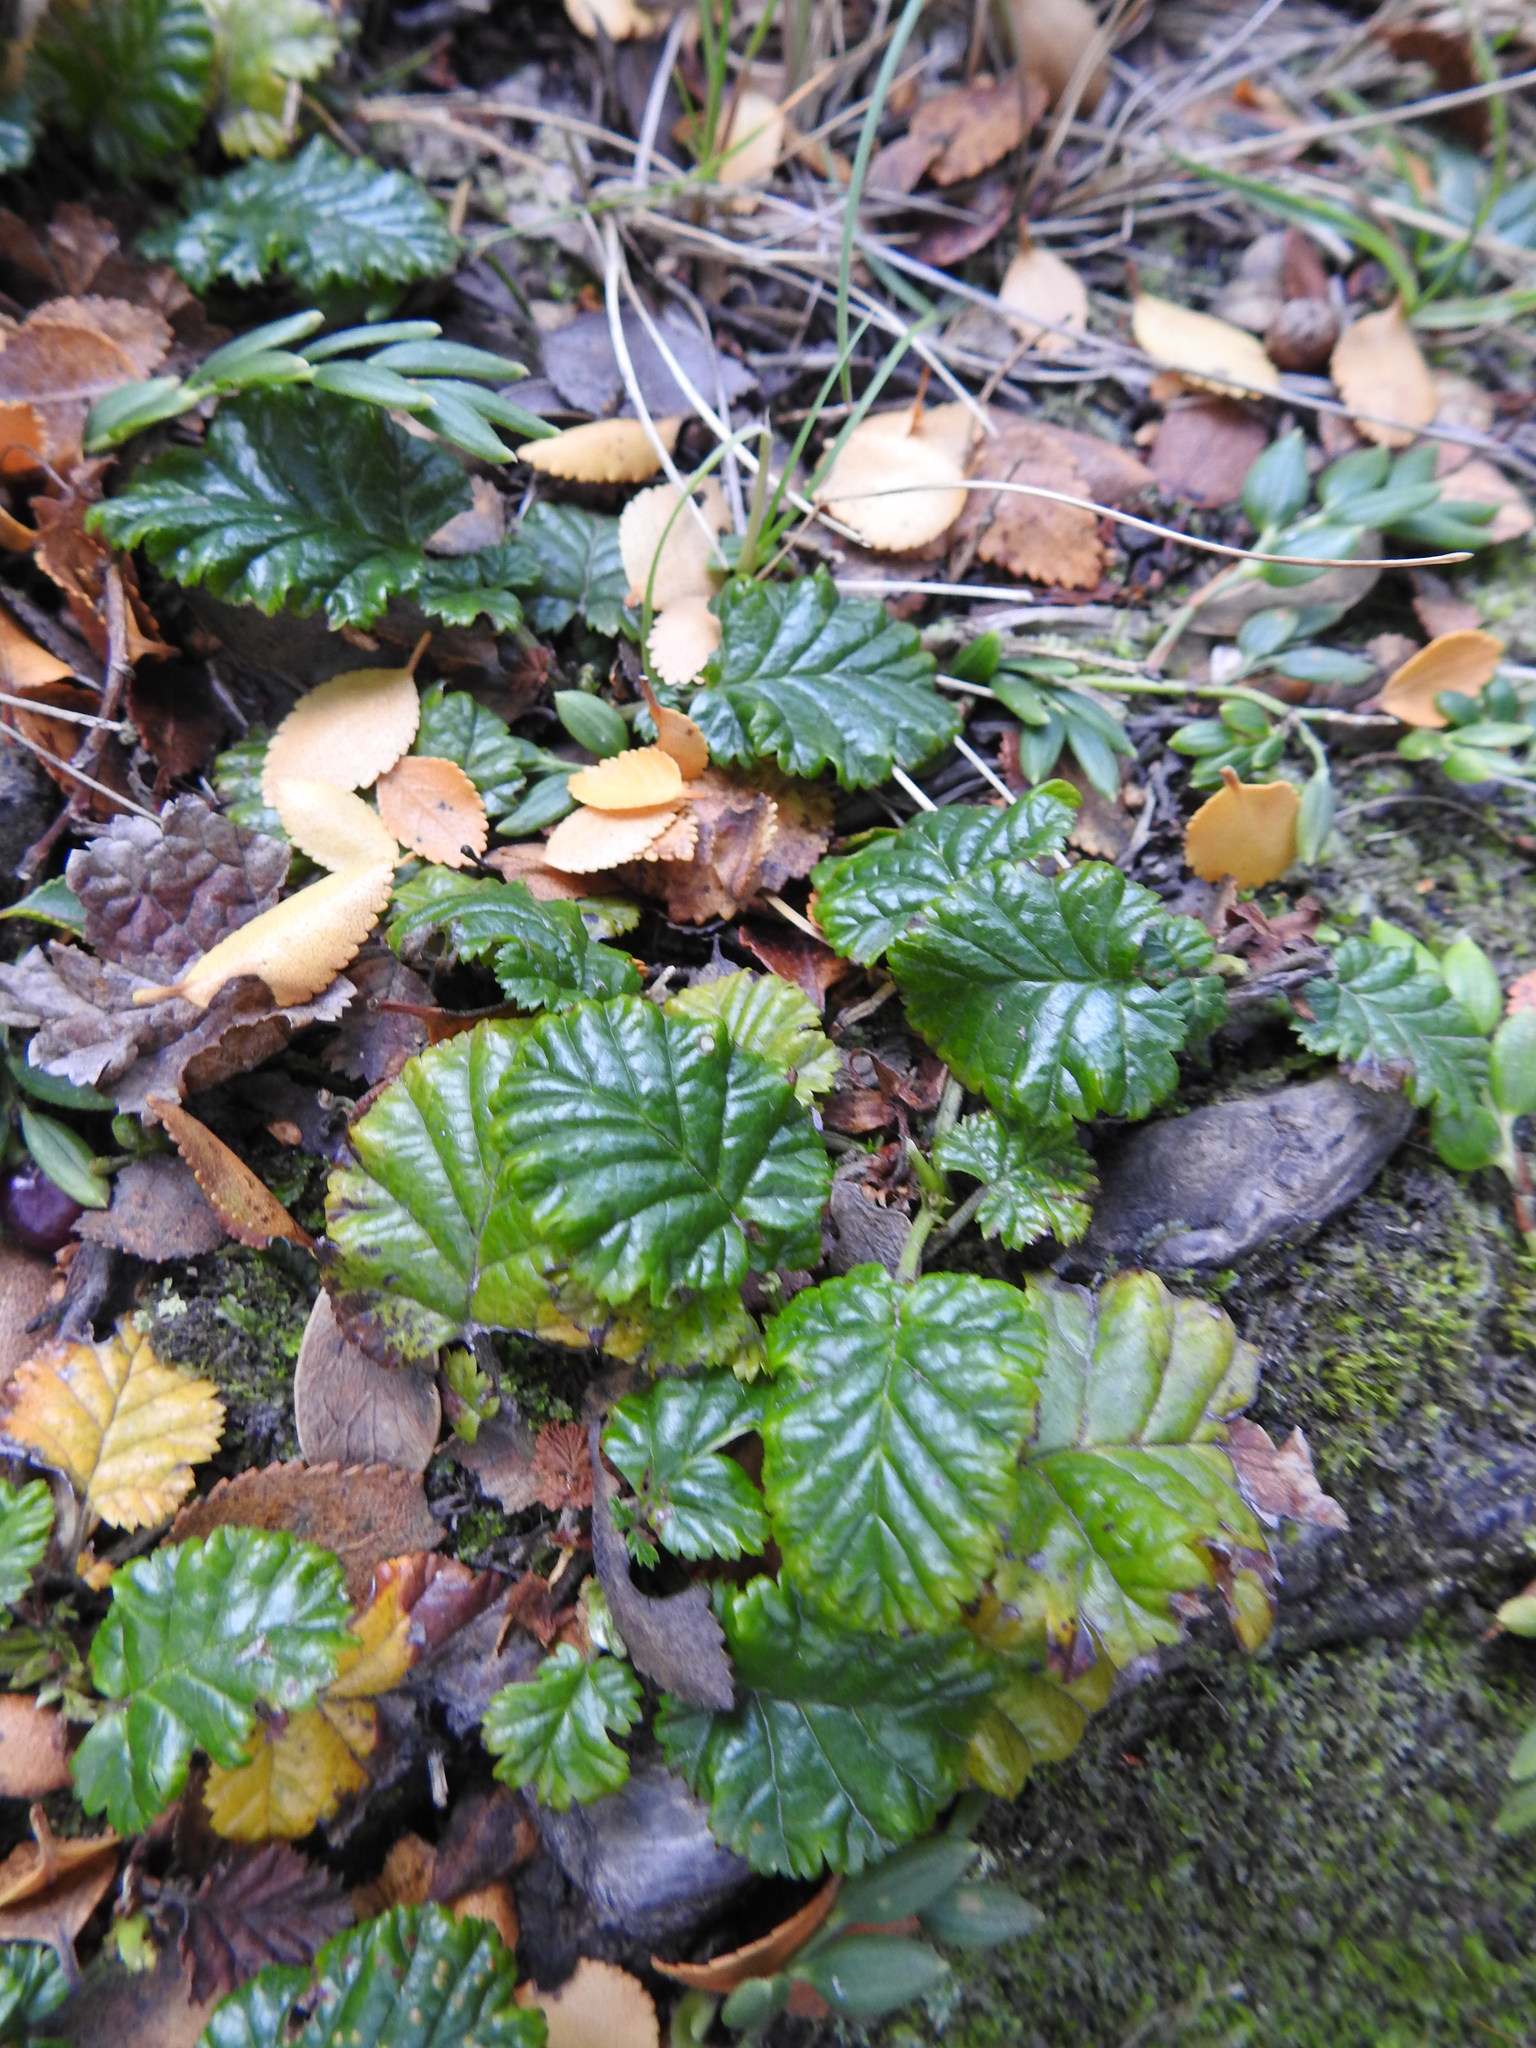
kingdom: Plantae
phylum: Tracheophyta
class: Magnoliopsida
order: Rosales
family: Rosaceae
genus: Rubus
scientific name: Rubus geoides
